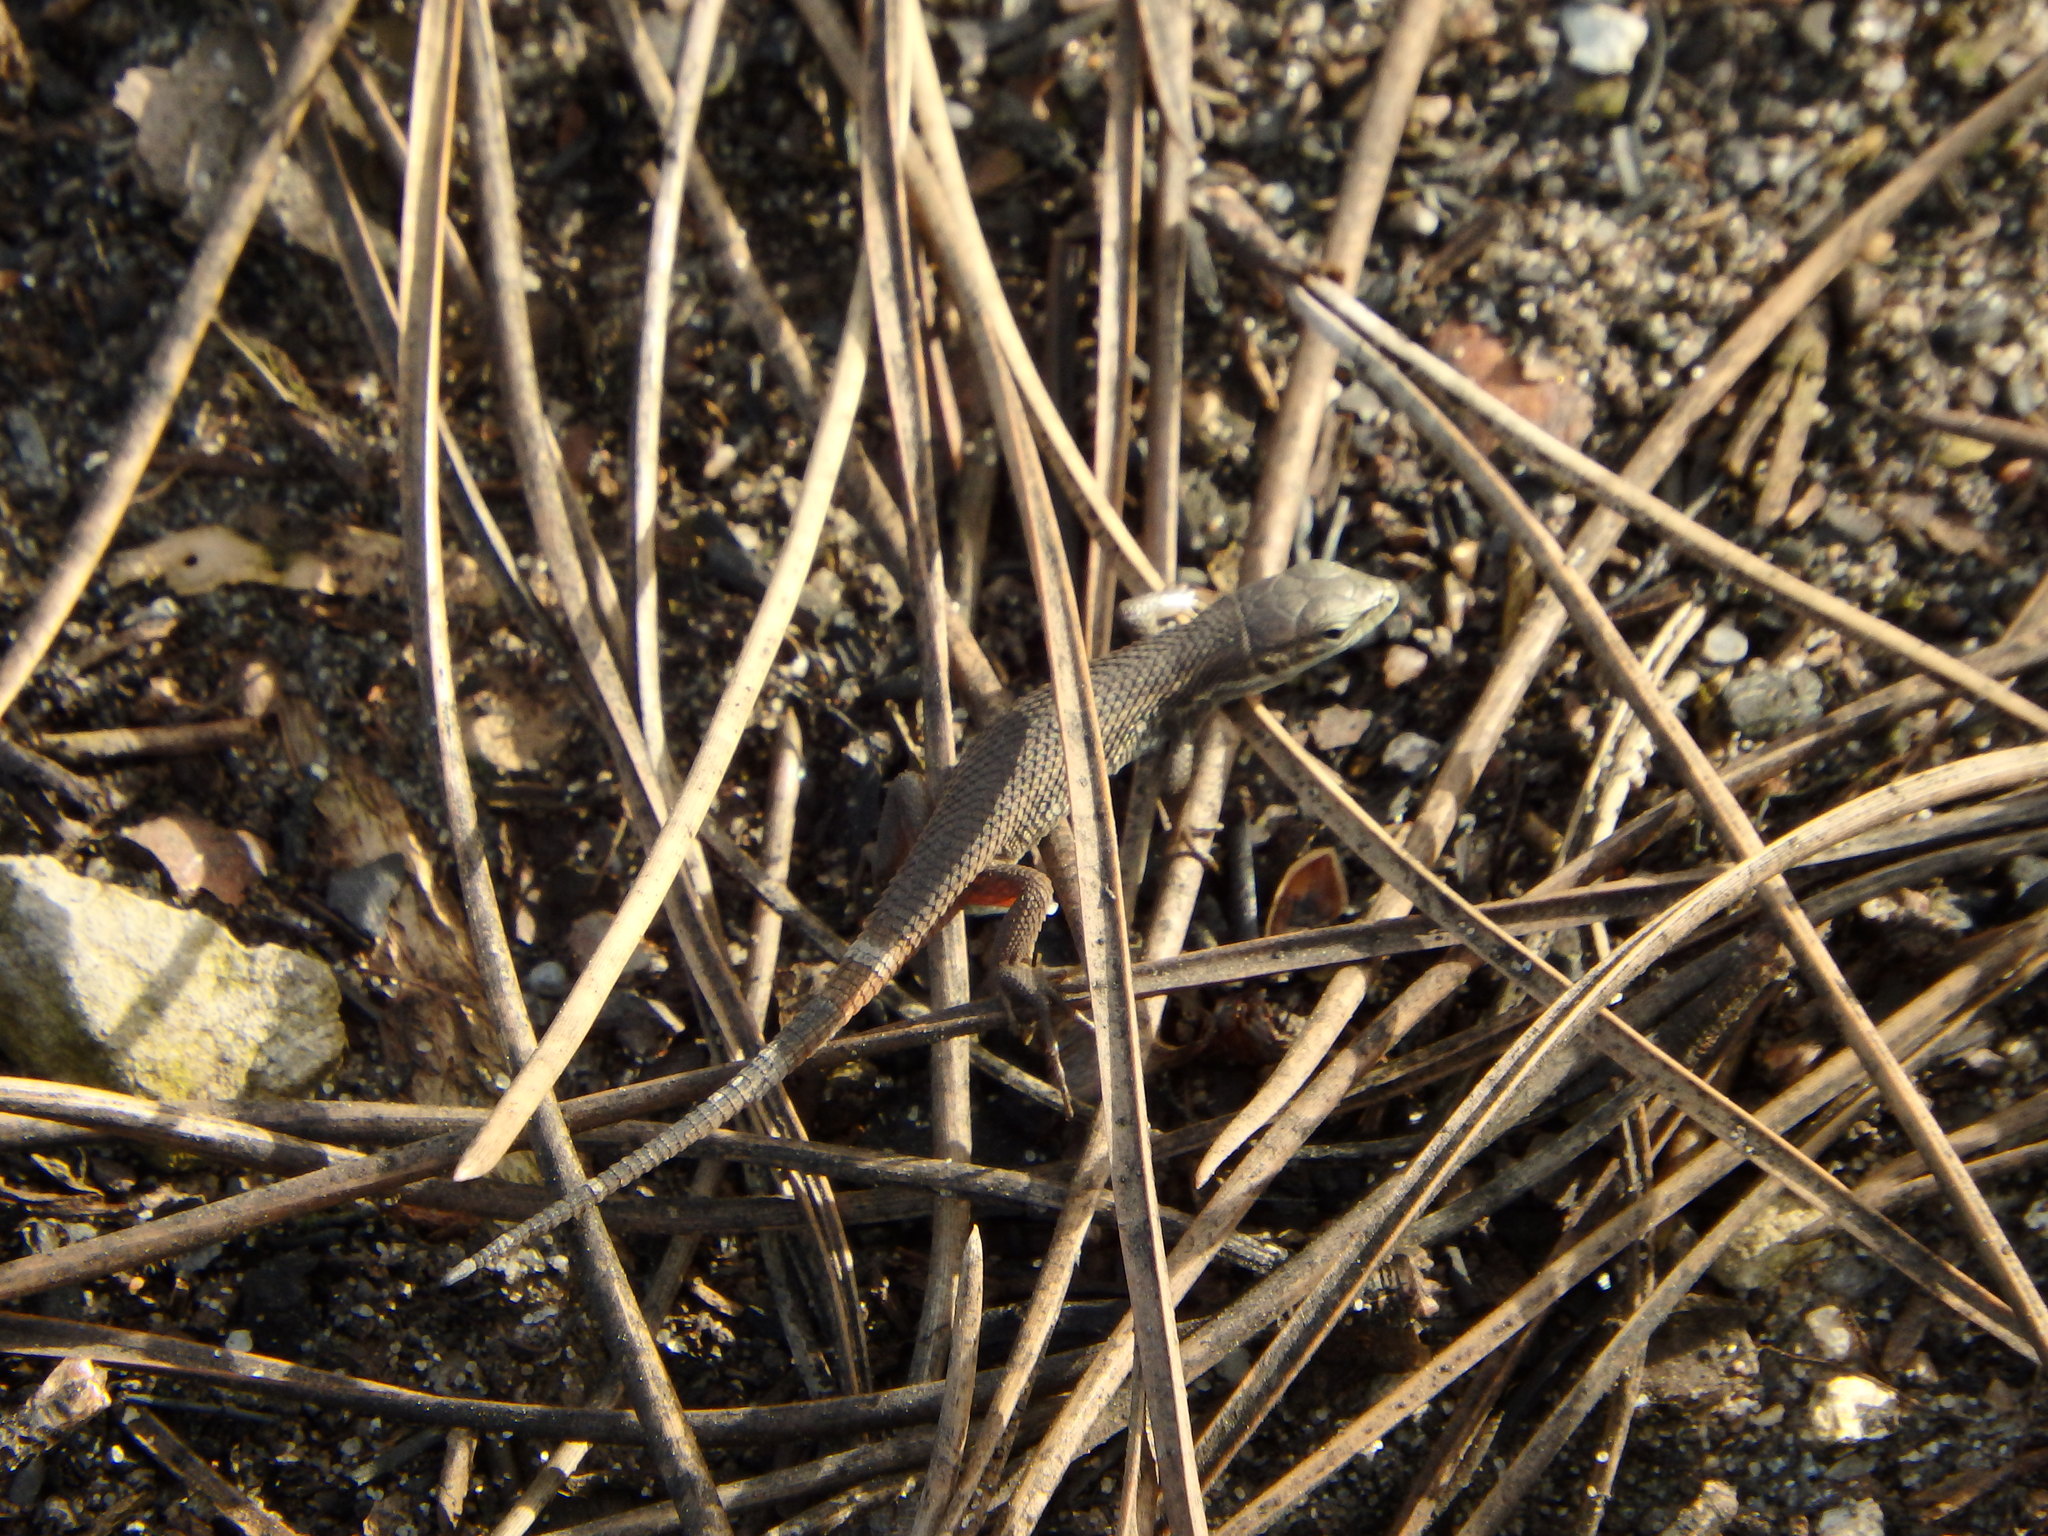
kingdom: Animalia
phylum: Chordata
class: Squamata
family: Lacertidae
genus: Psammodromus
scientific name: Psammodromus algirus
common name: Algerian psammodromus
